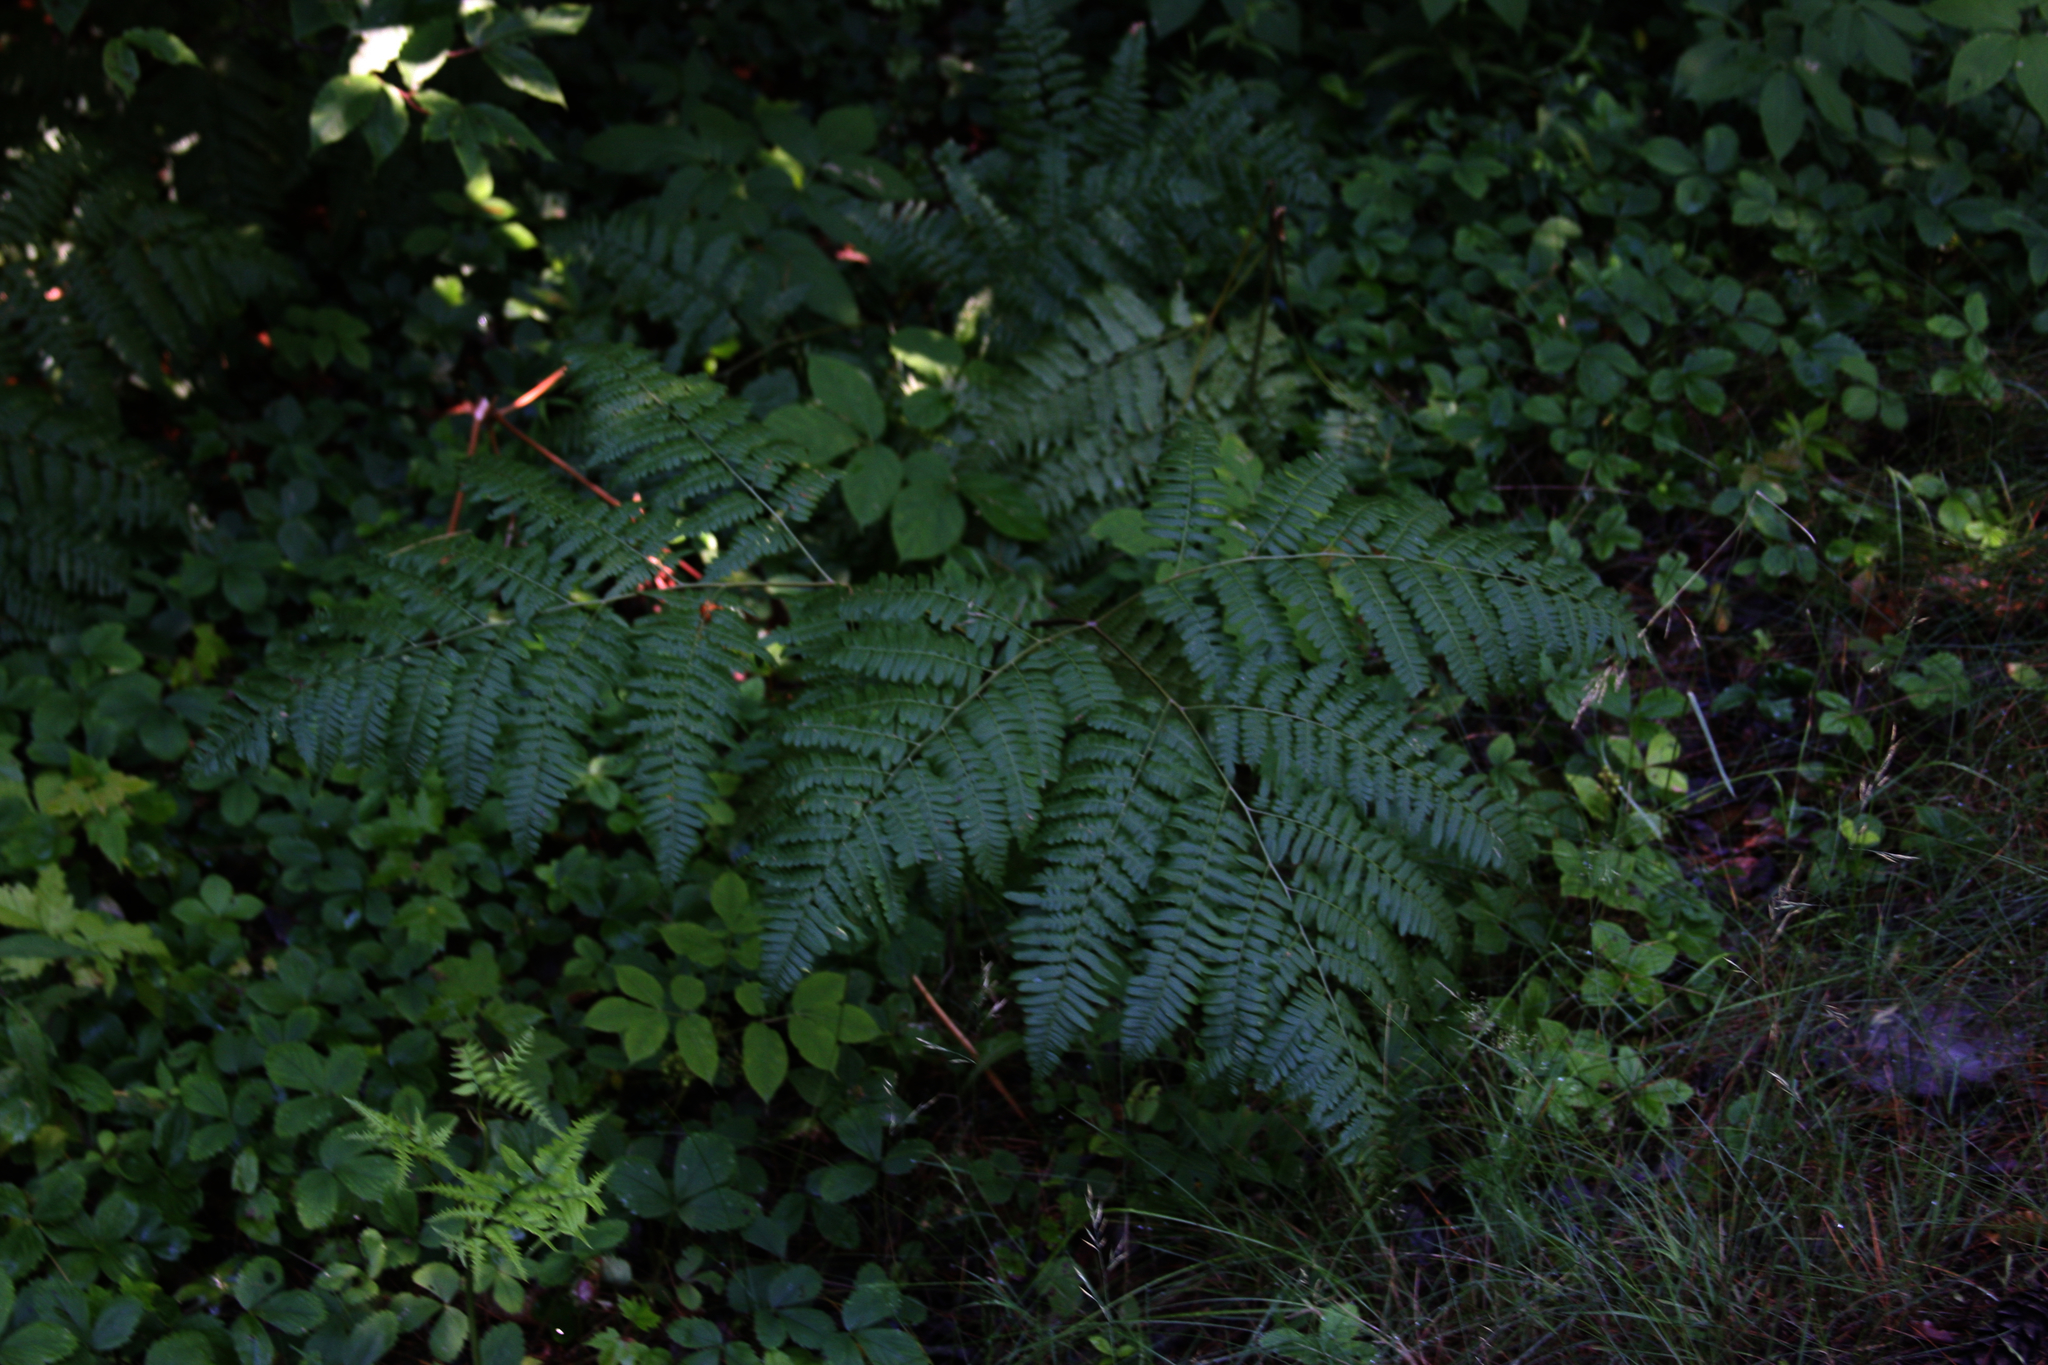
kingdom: Plantae
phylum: Tracheophyta
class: Polypodiopsida
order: Polypodiales
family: Dennstaedtiaceae
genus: Pteridium
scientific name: Pteridium aquilinum
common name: Bracken
